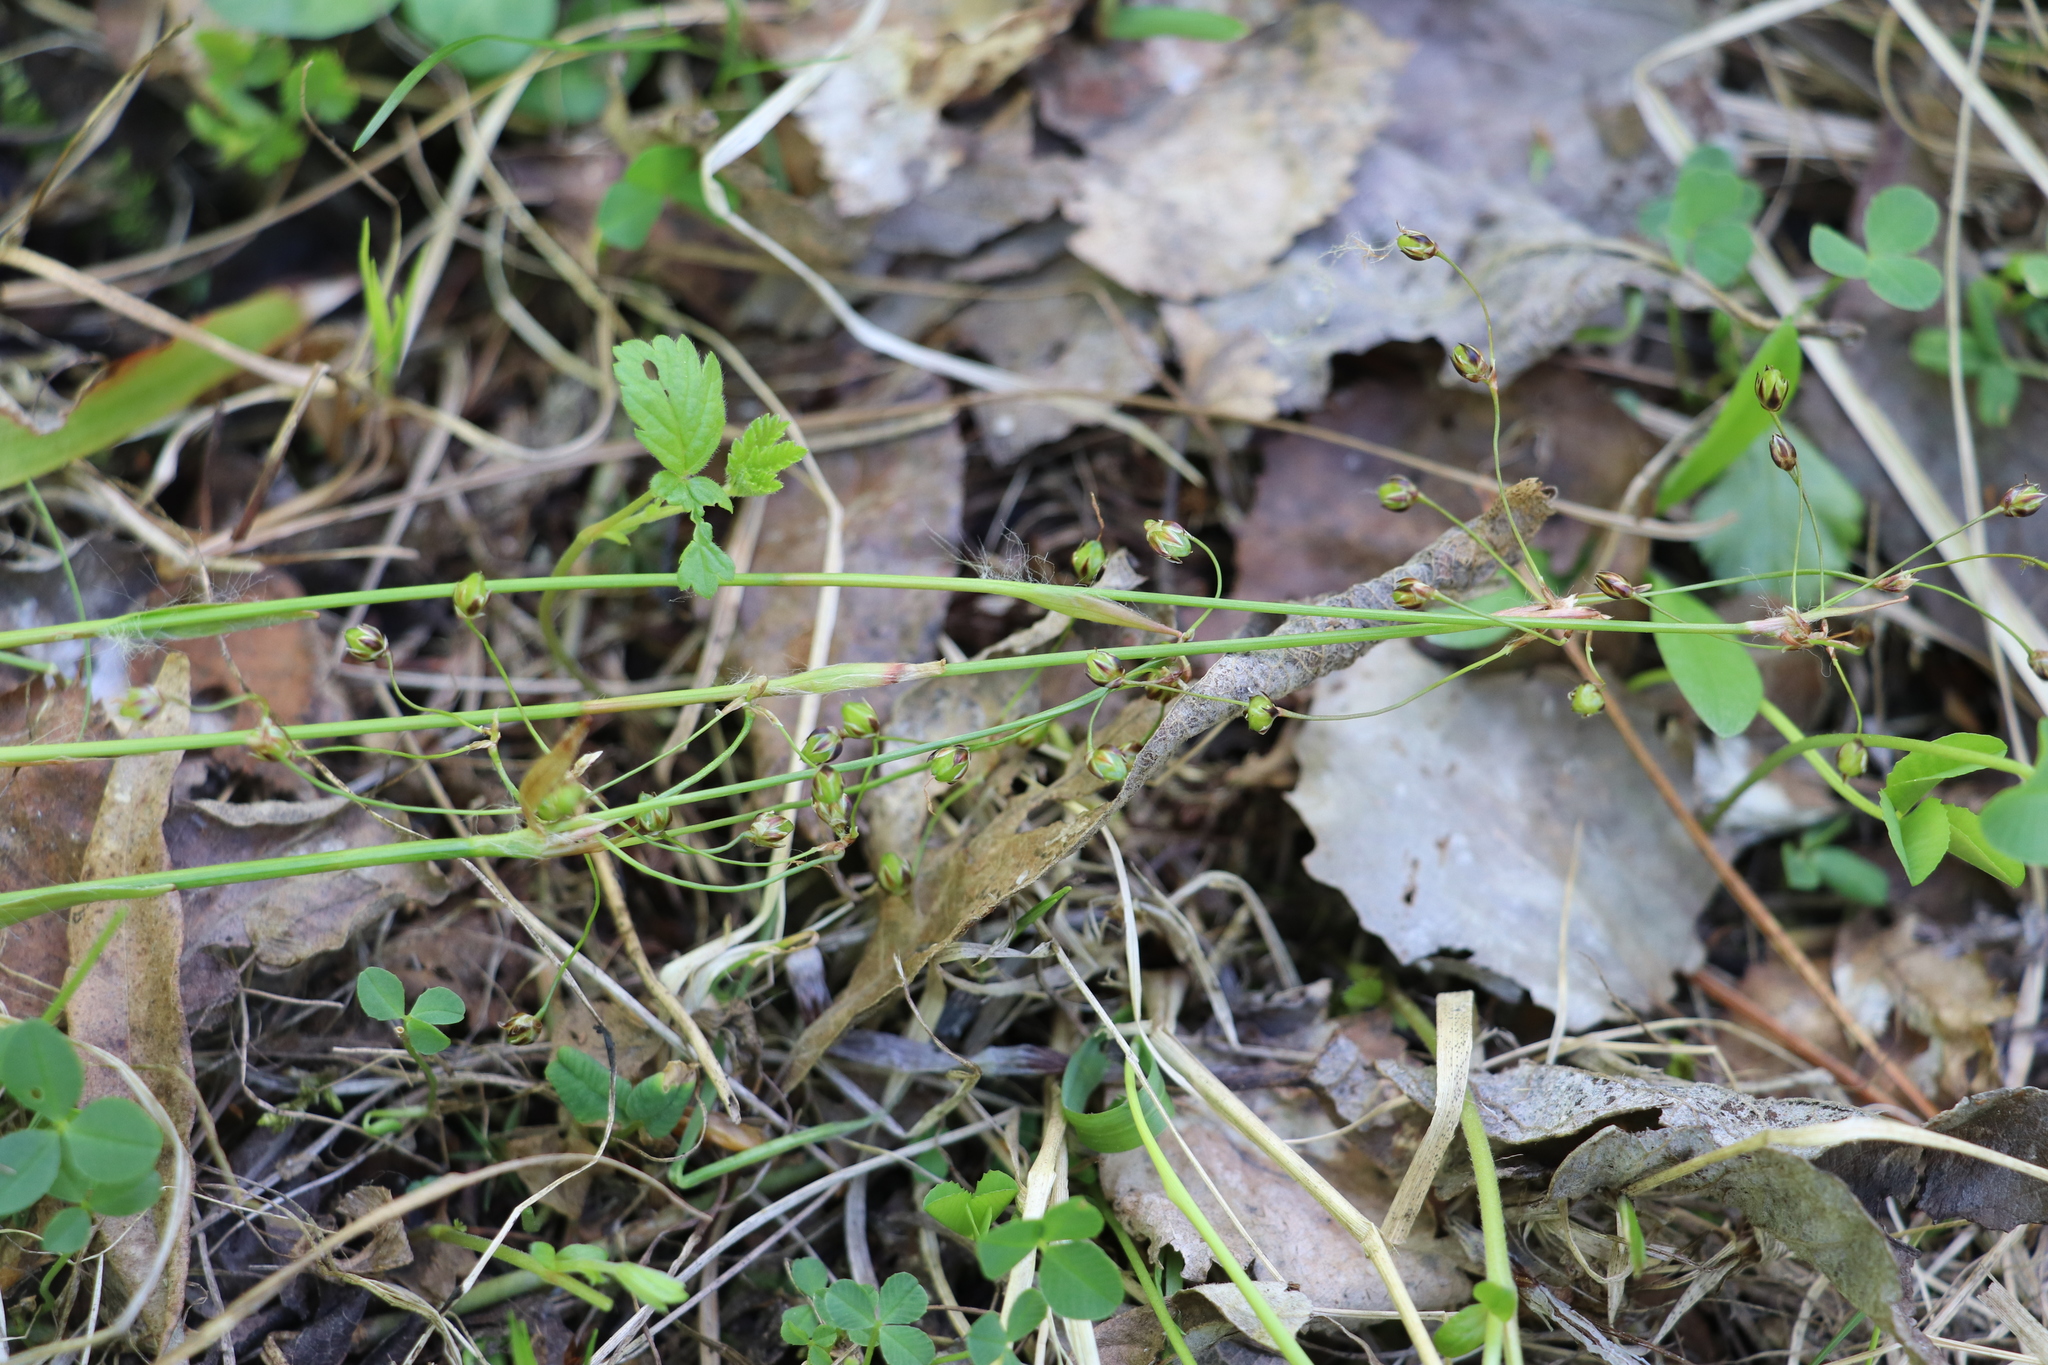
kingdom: Plantae
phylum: Tracheophyta
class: Liliopsida
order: Poales
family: Juncaceae
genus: Luzula
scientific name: Luzula pilosa
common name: Hairy wood-rush
